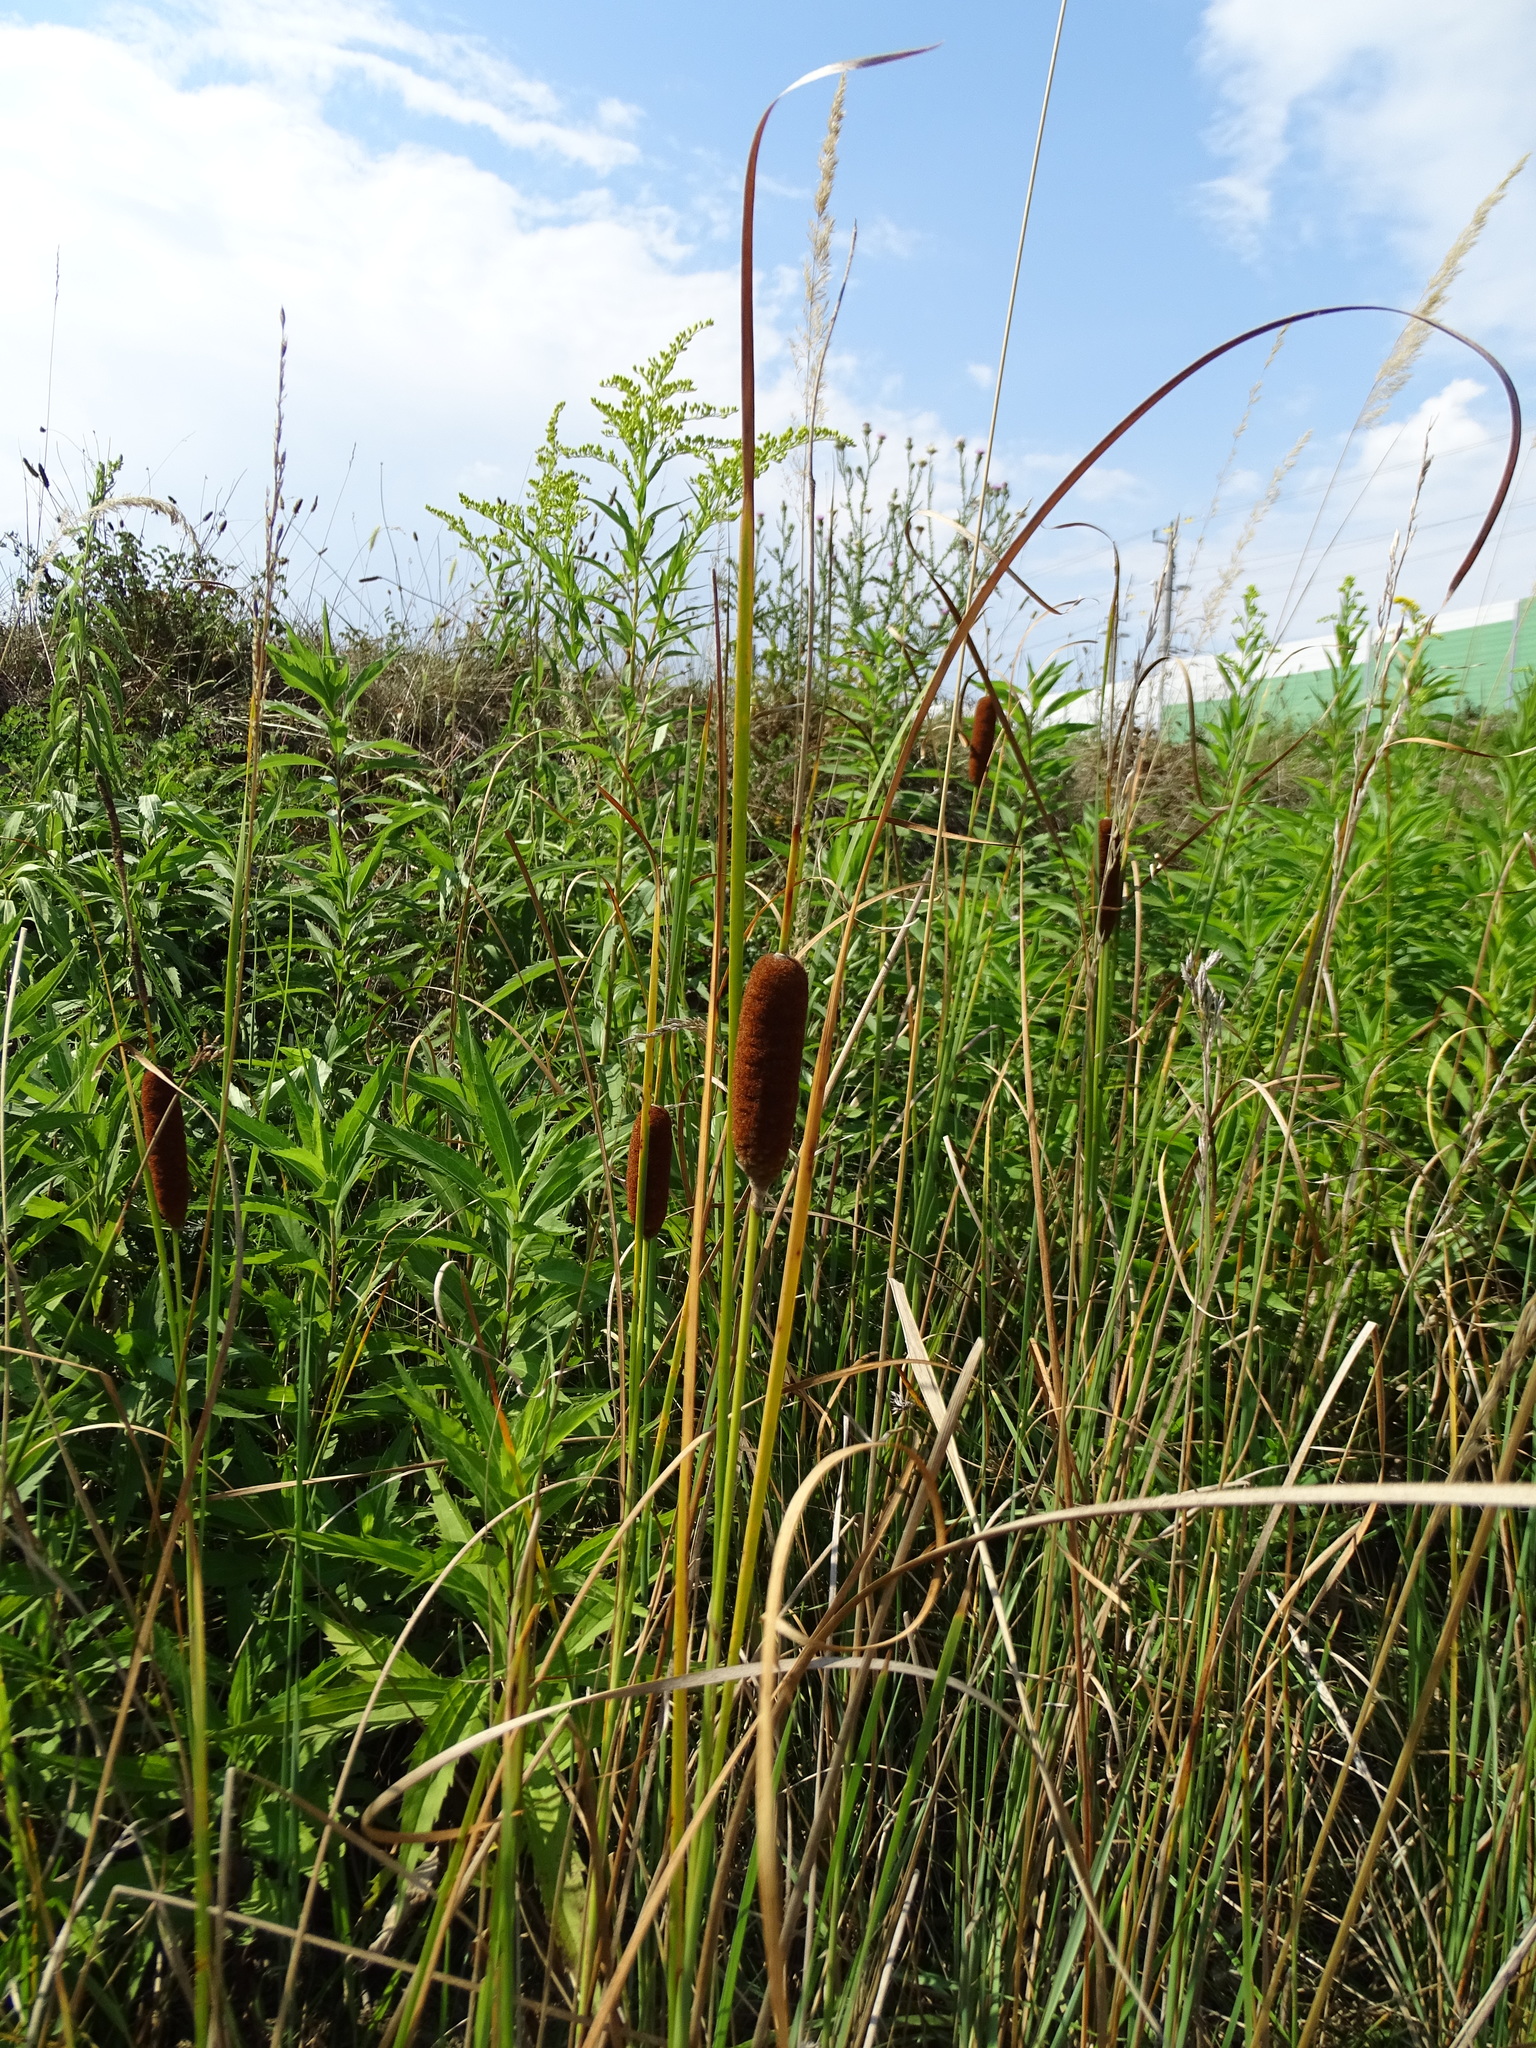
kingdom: Plantae
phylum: Tracheophyta
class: Liliopsida
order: Poales
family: Typhaceae
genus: Typha
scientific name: Typha laxmannii
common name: Laxman’s bulrush
